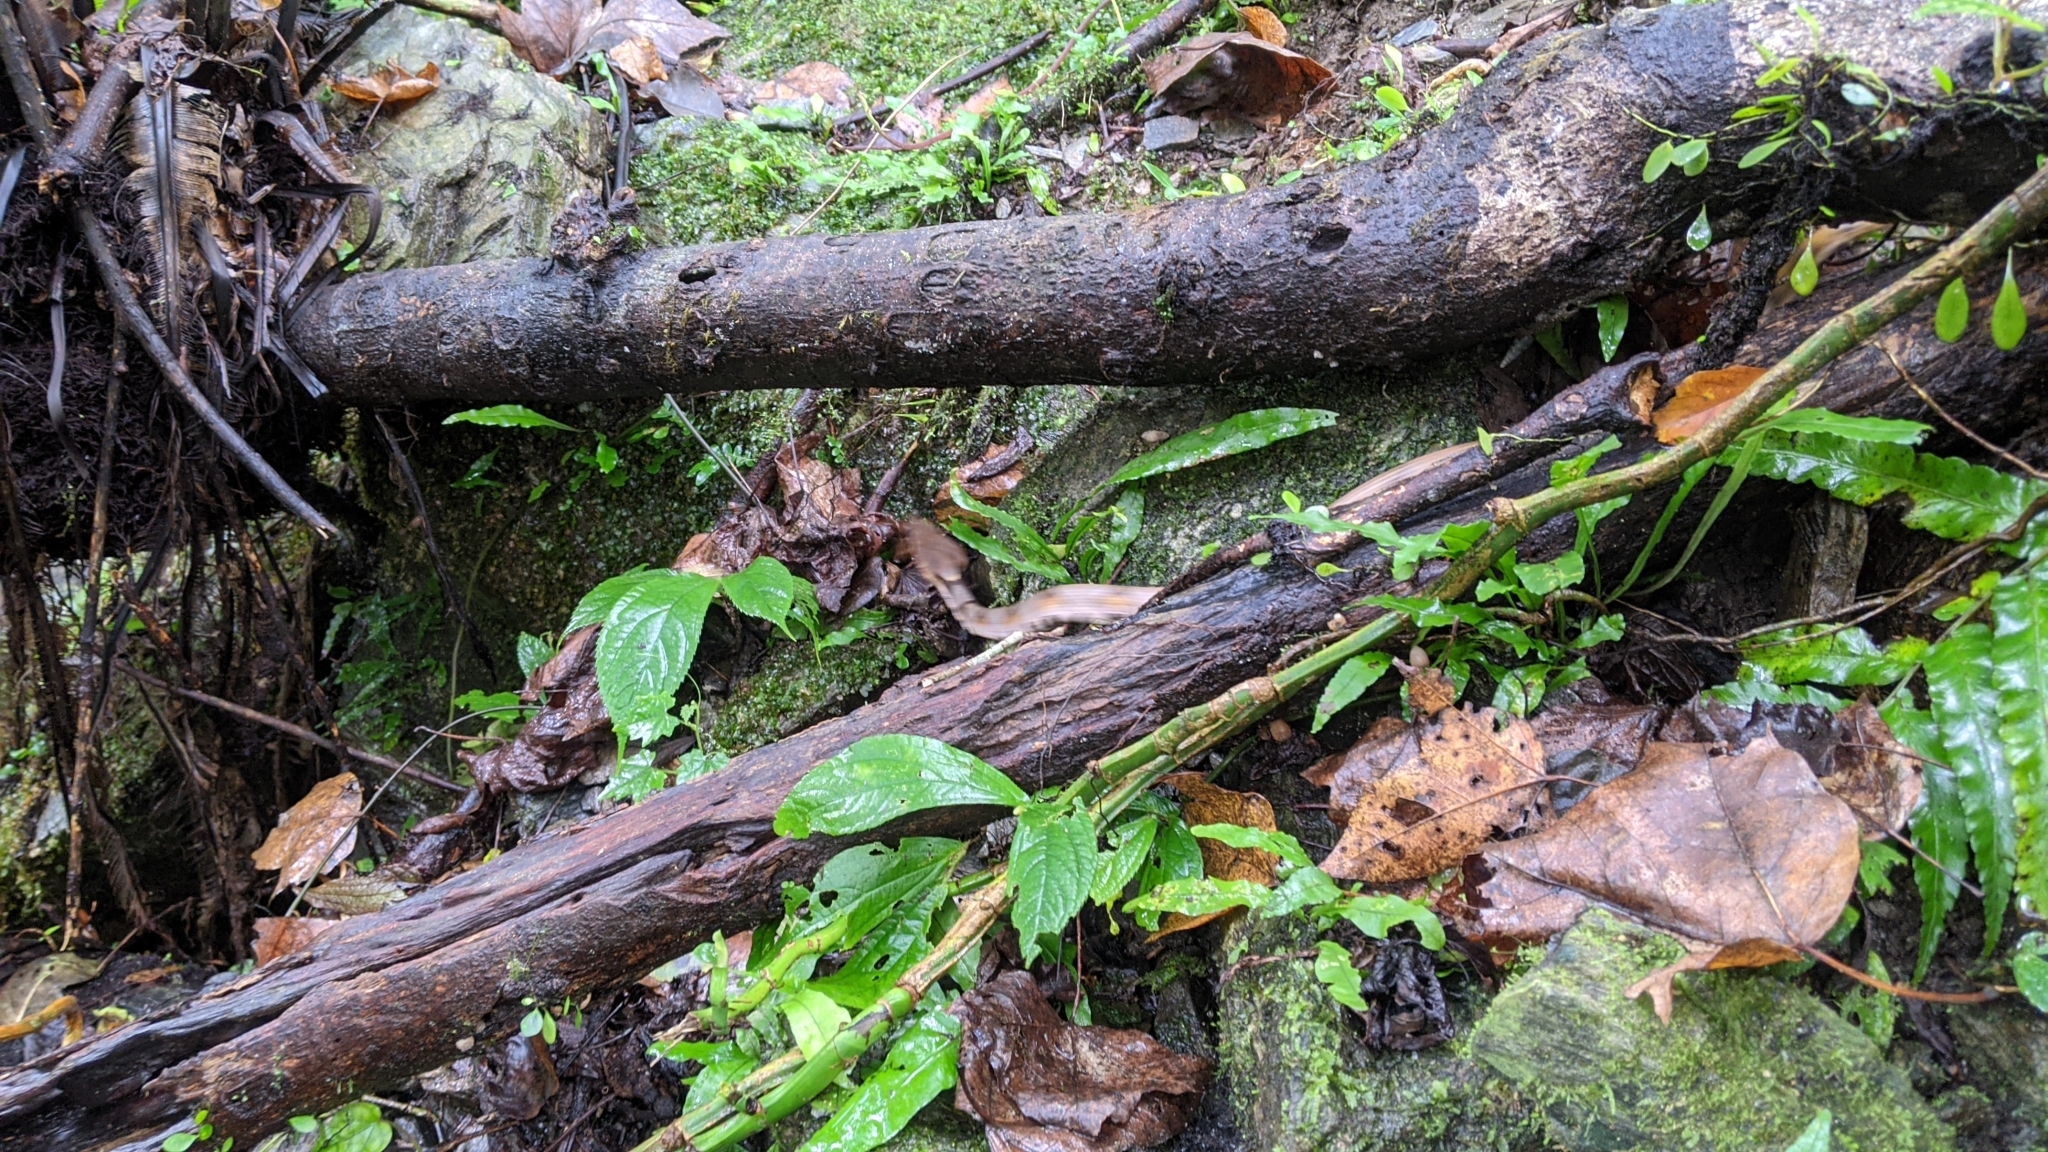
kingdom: Animalia
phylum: Chordata
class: Squamata
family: Viperidae
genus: Deinagkistrodon
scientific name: Deinagkistrodon acutus
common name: Chinese moccasin
